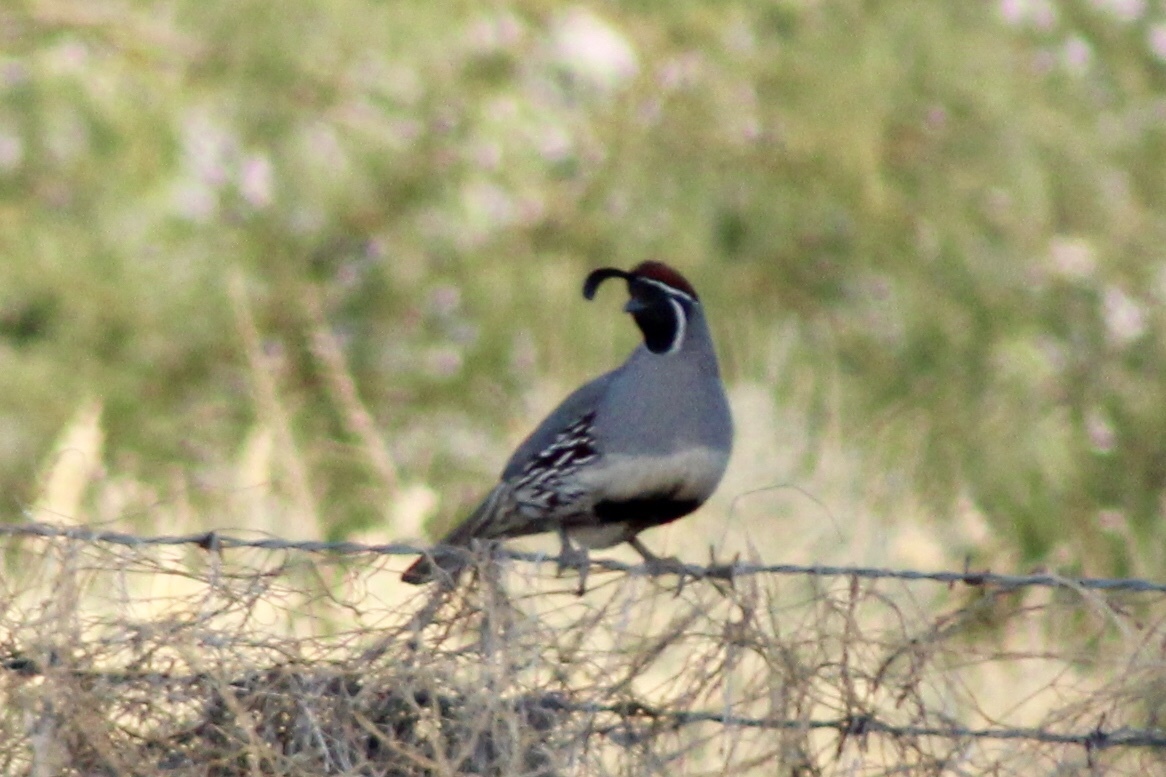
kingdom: Animalia
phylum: Chordata
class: Aves
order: Galliformes
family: Odontophoridae
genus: Callipepla
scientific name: Callipepla gambelii
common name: Gambel's quail
